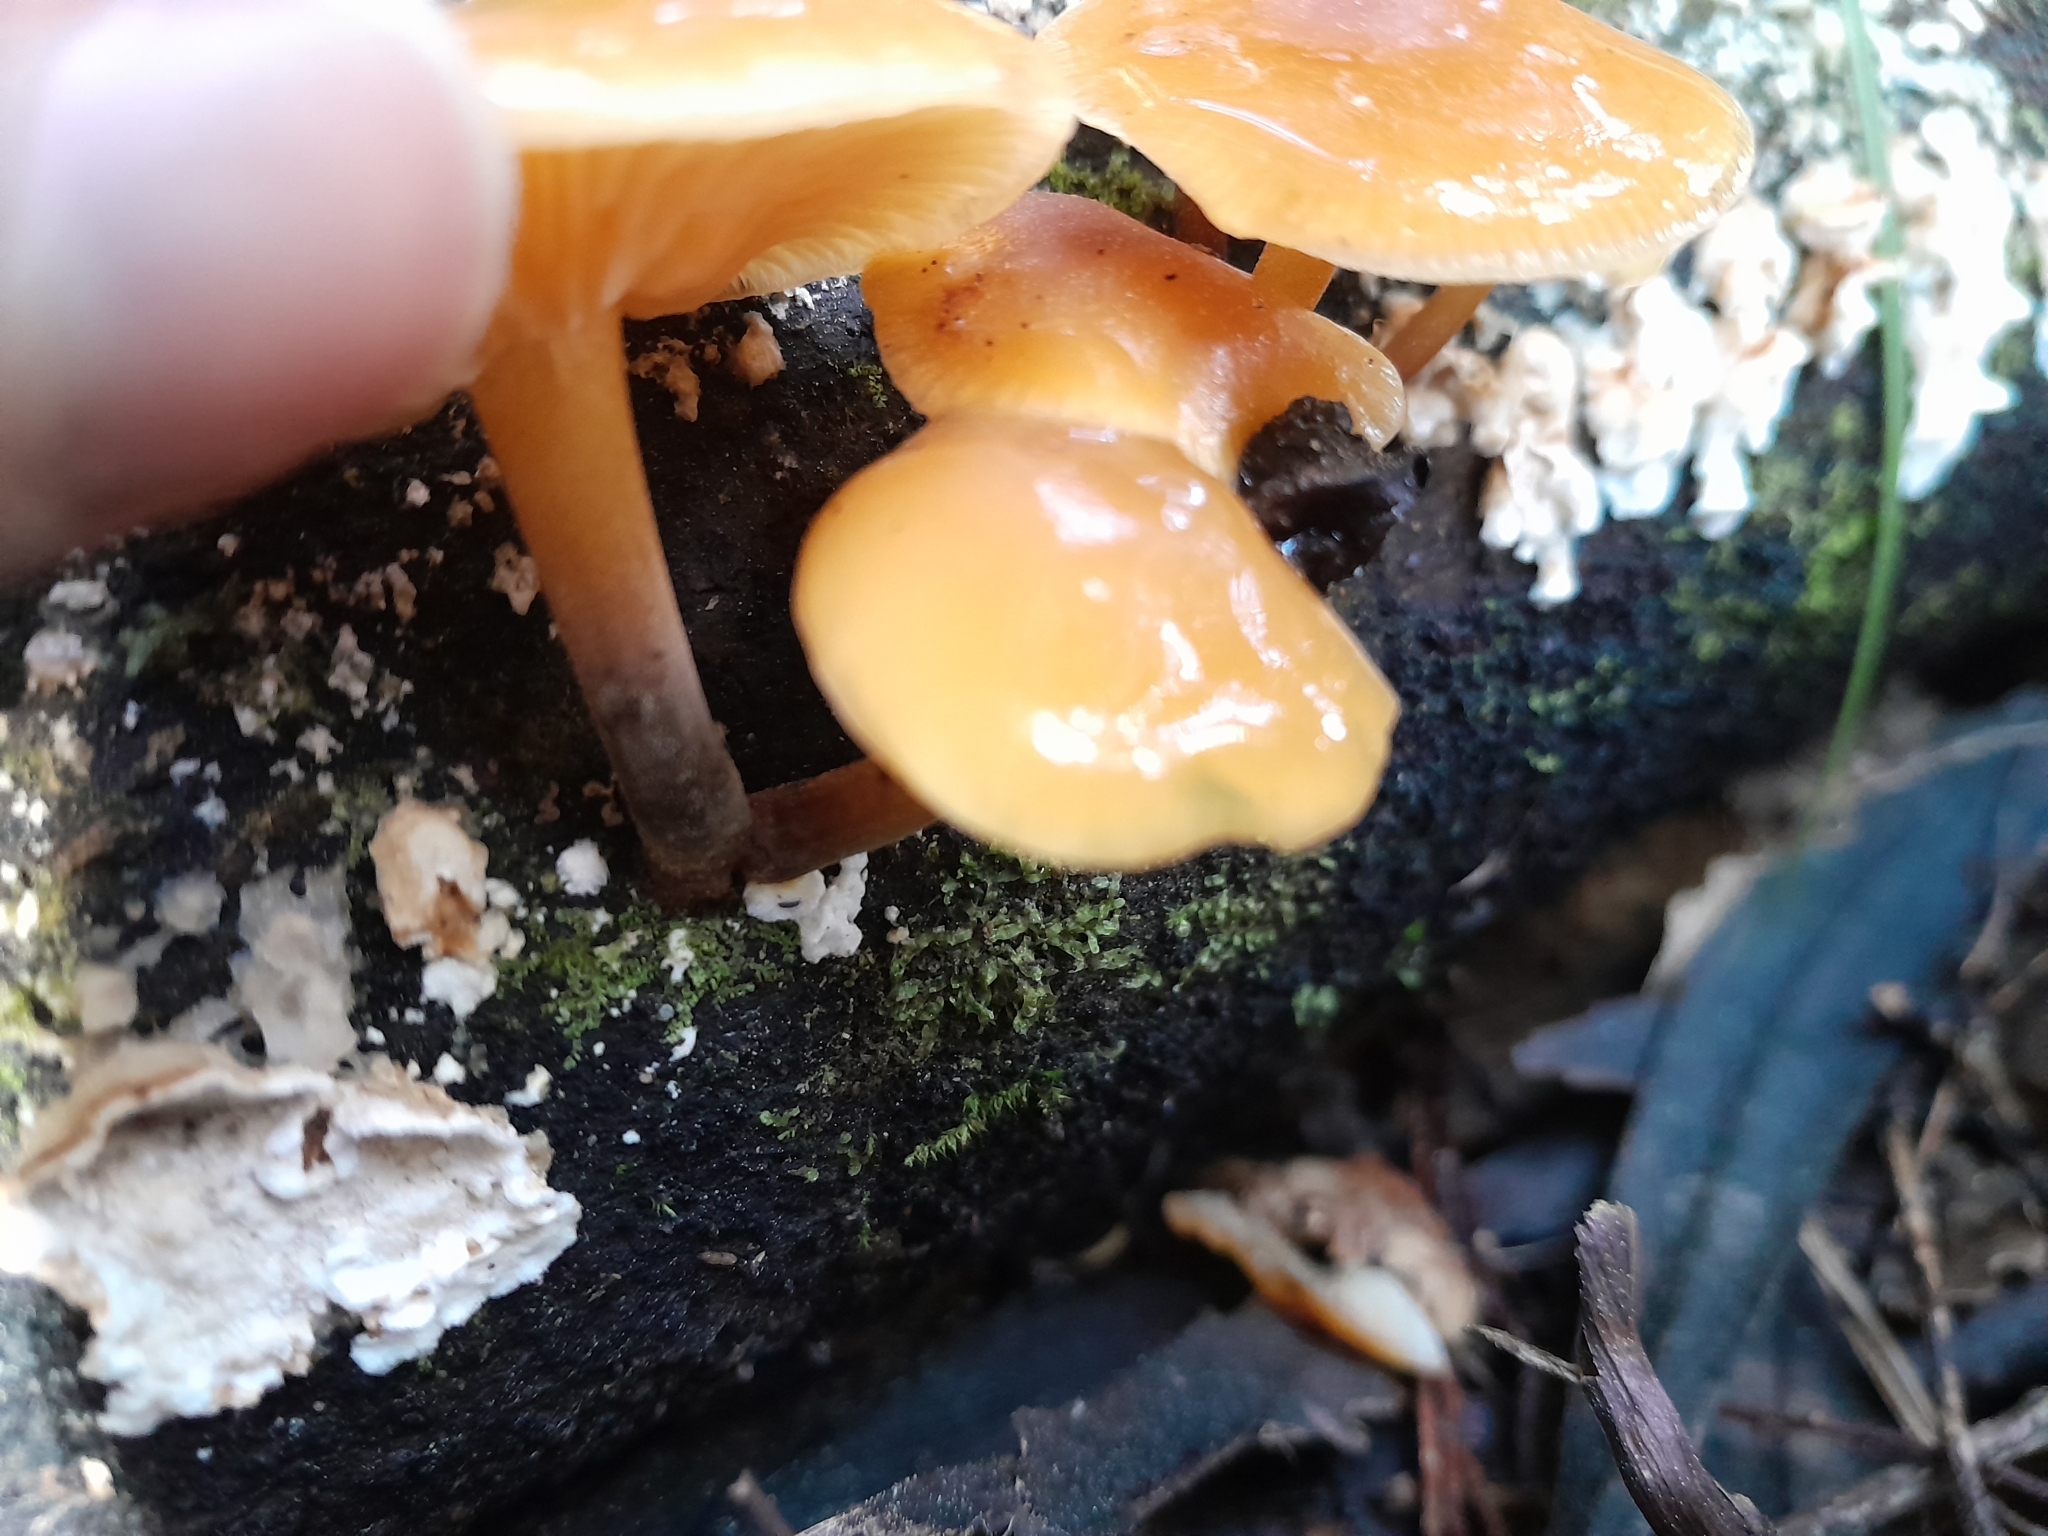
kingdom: Fungi
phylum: Basidiomycota
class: Agaricomycetes
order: Agaricales
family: Physalacriaceae
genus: Flammulina
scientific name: Flammulina velutipes
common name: Velvet shank
